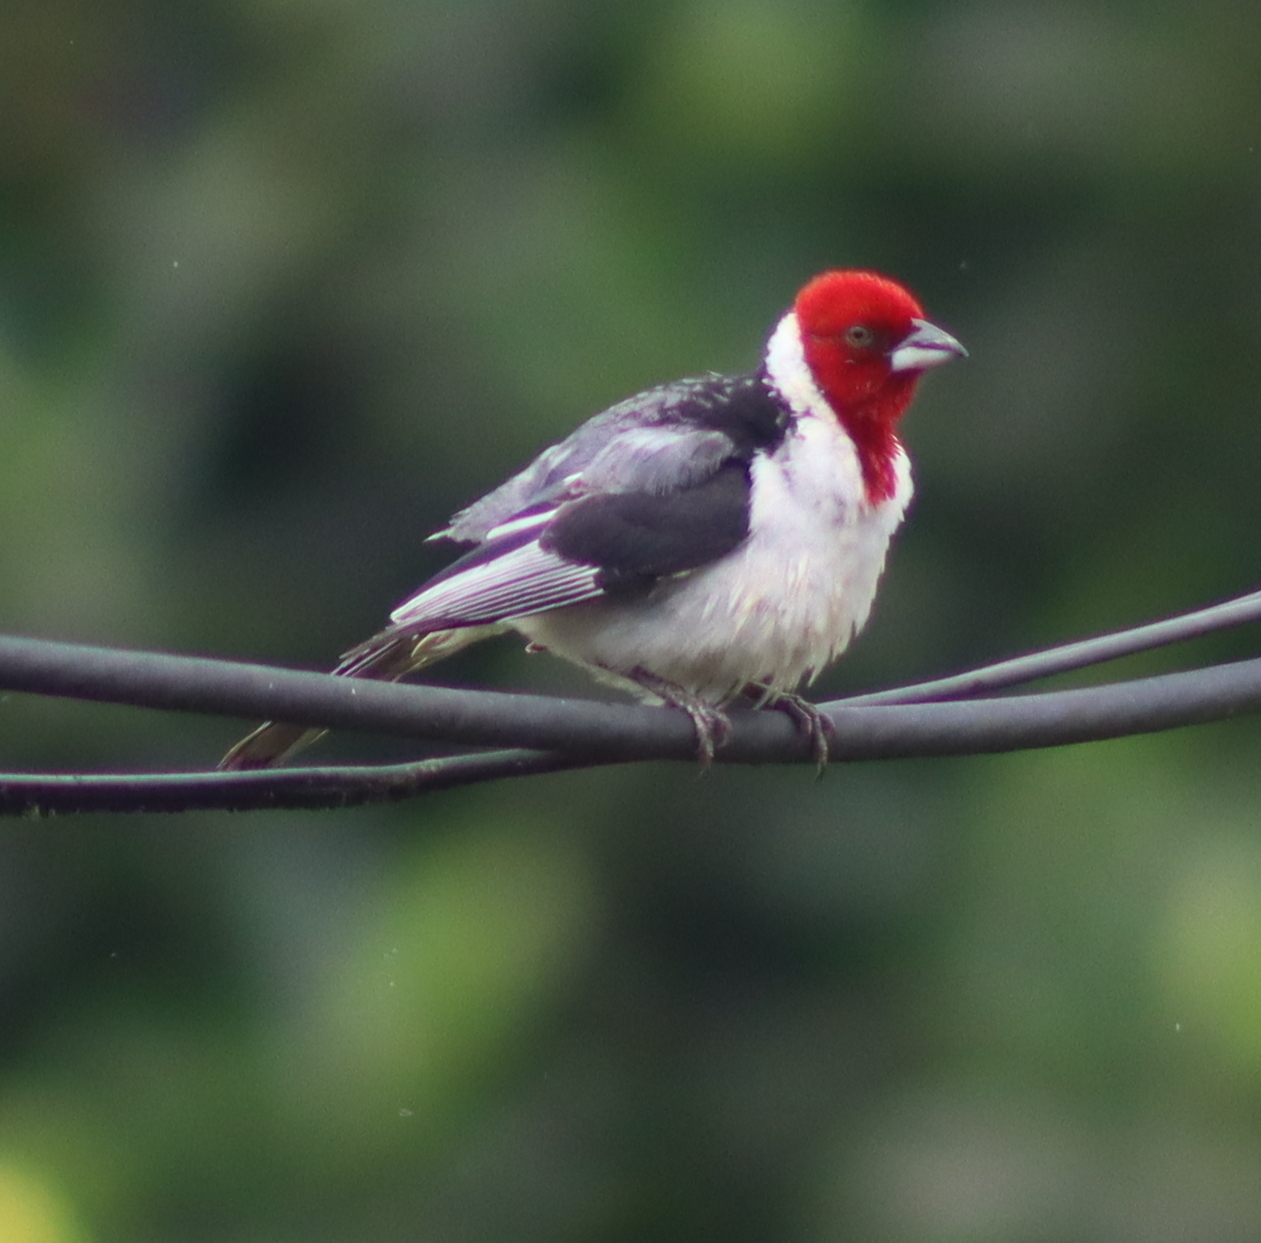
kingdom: Animalia
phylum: Chordata
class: Aves
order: Passeriformes
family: Thraupidae
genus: Paroaria
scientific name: Paroaria dominicana
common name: Red-cowled cardinal
